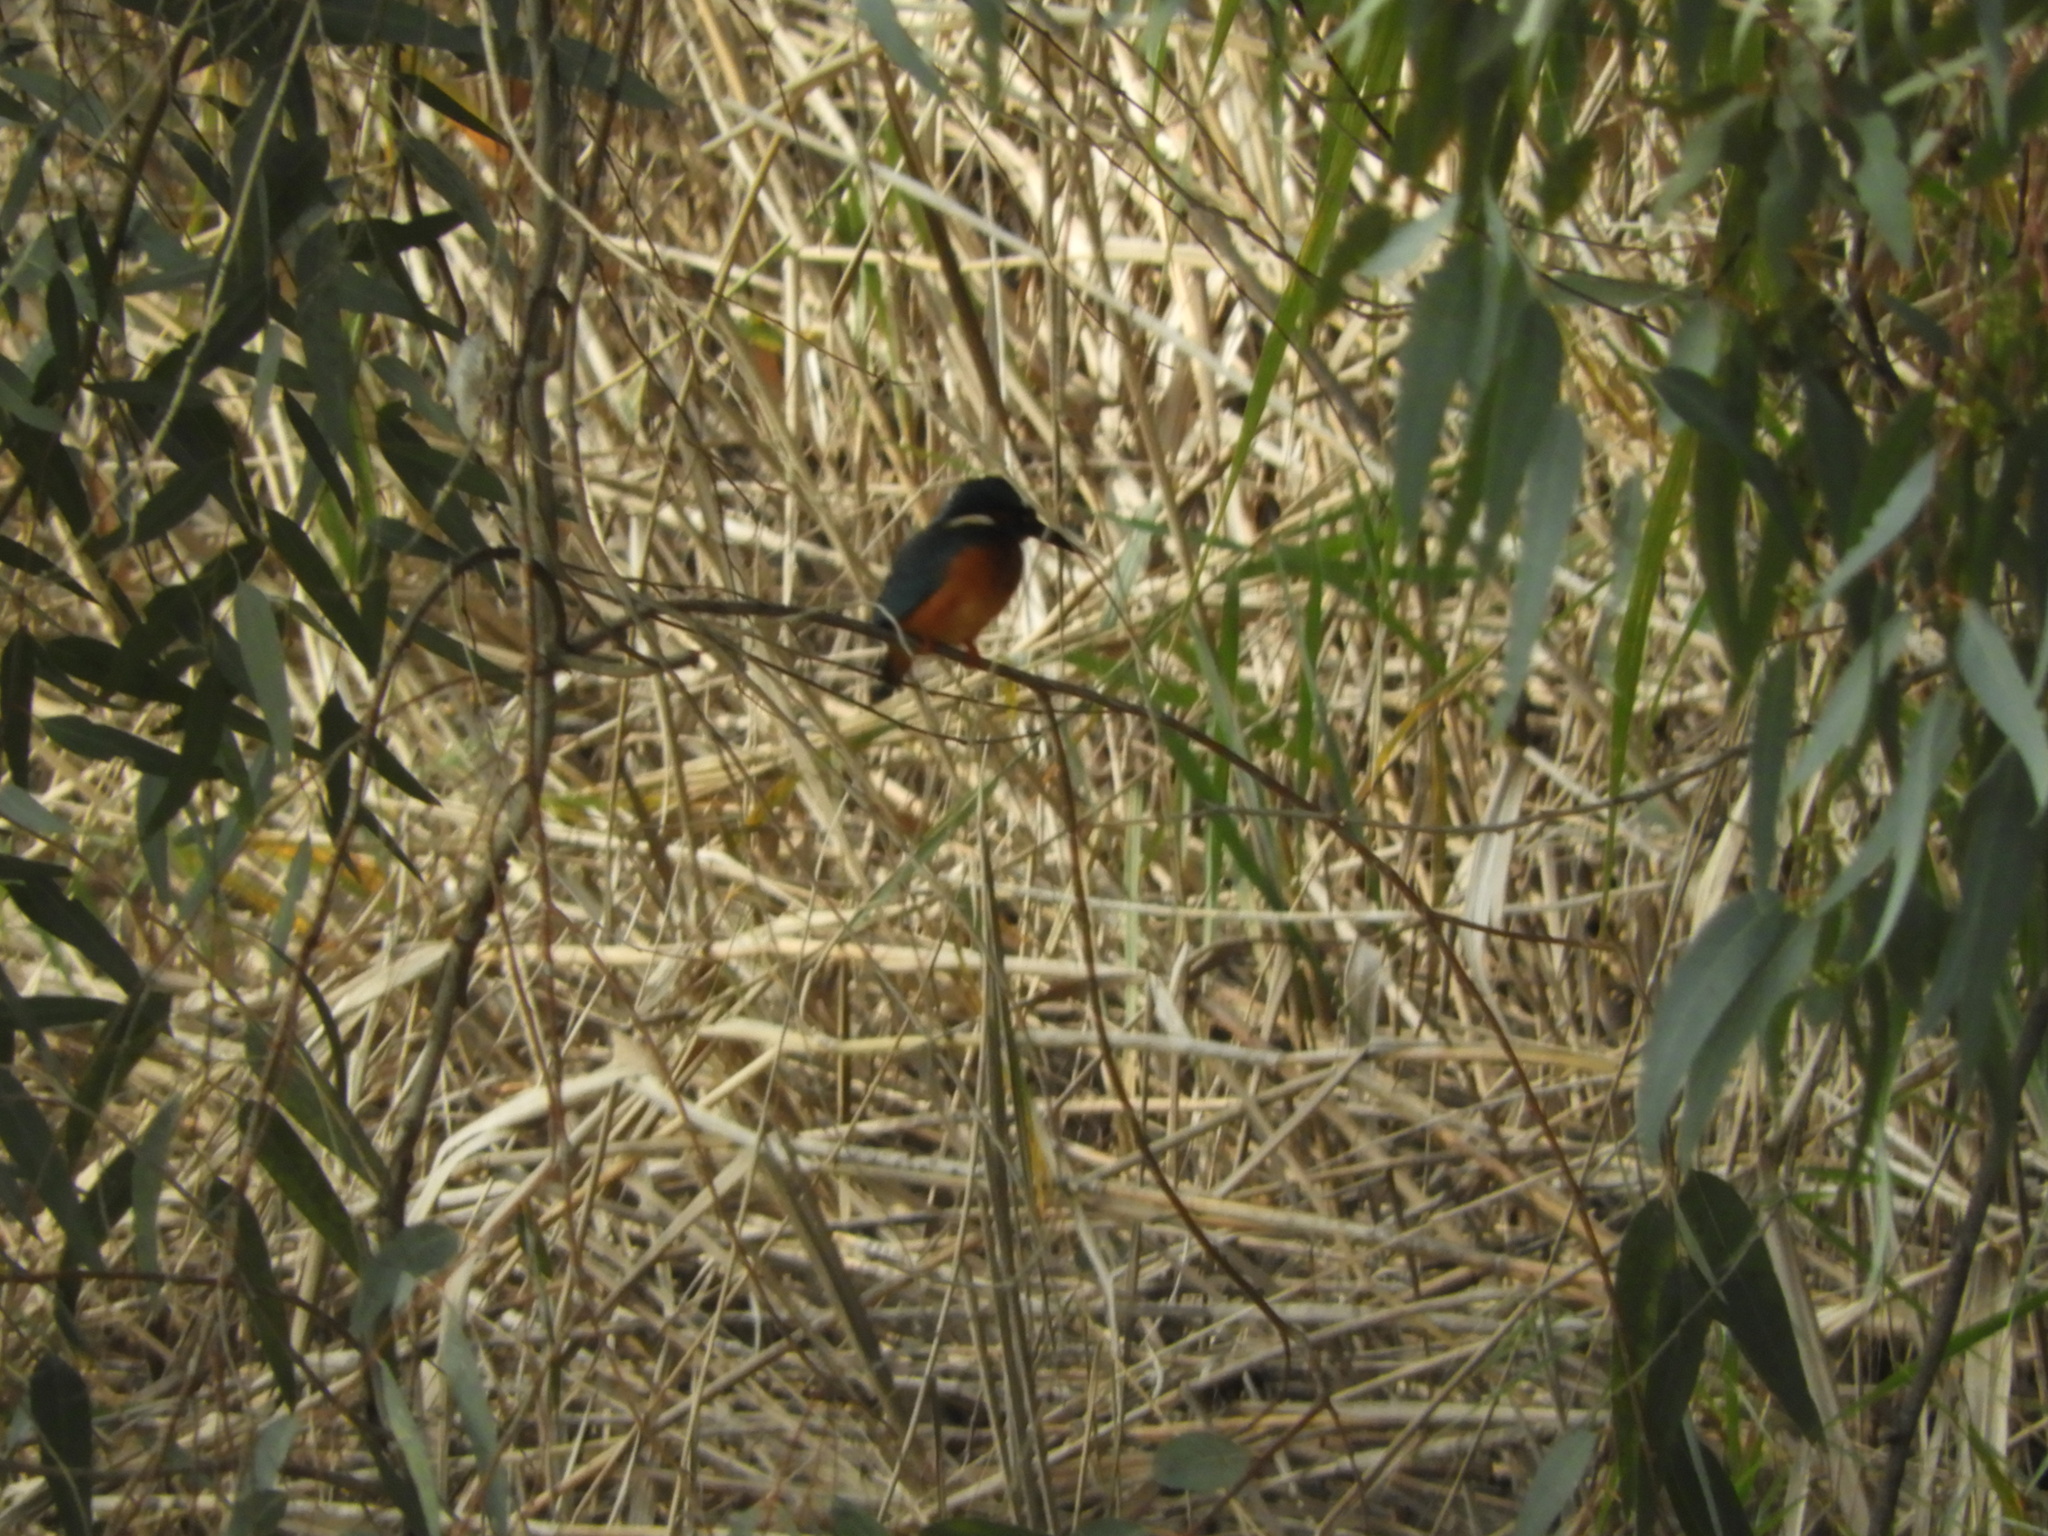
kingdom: Animalia
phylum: Chordata
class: Aves
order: Coraciiformes
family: Alcedinidae
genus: Alcedo
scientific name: Alcedo atthis
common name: Common kingfisher
